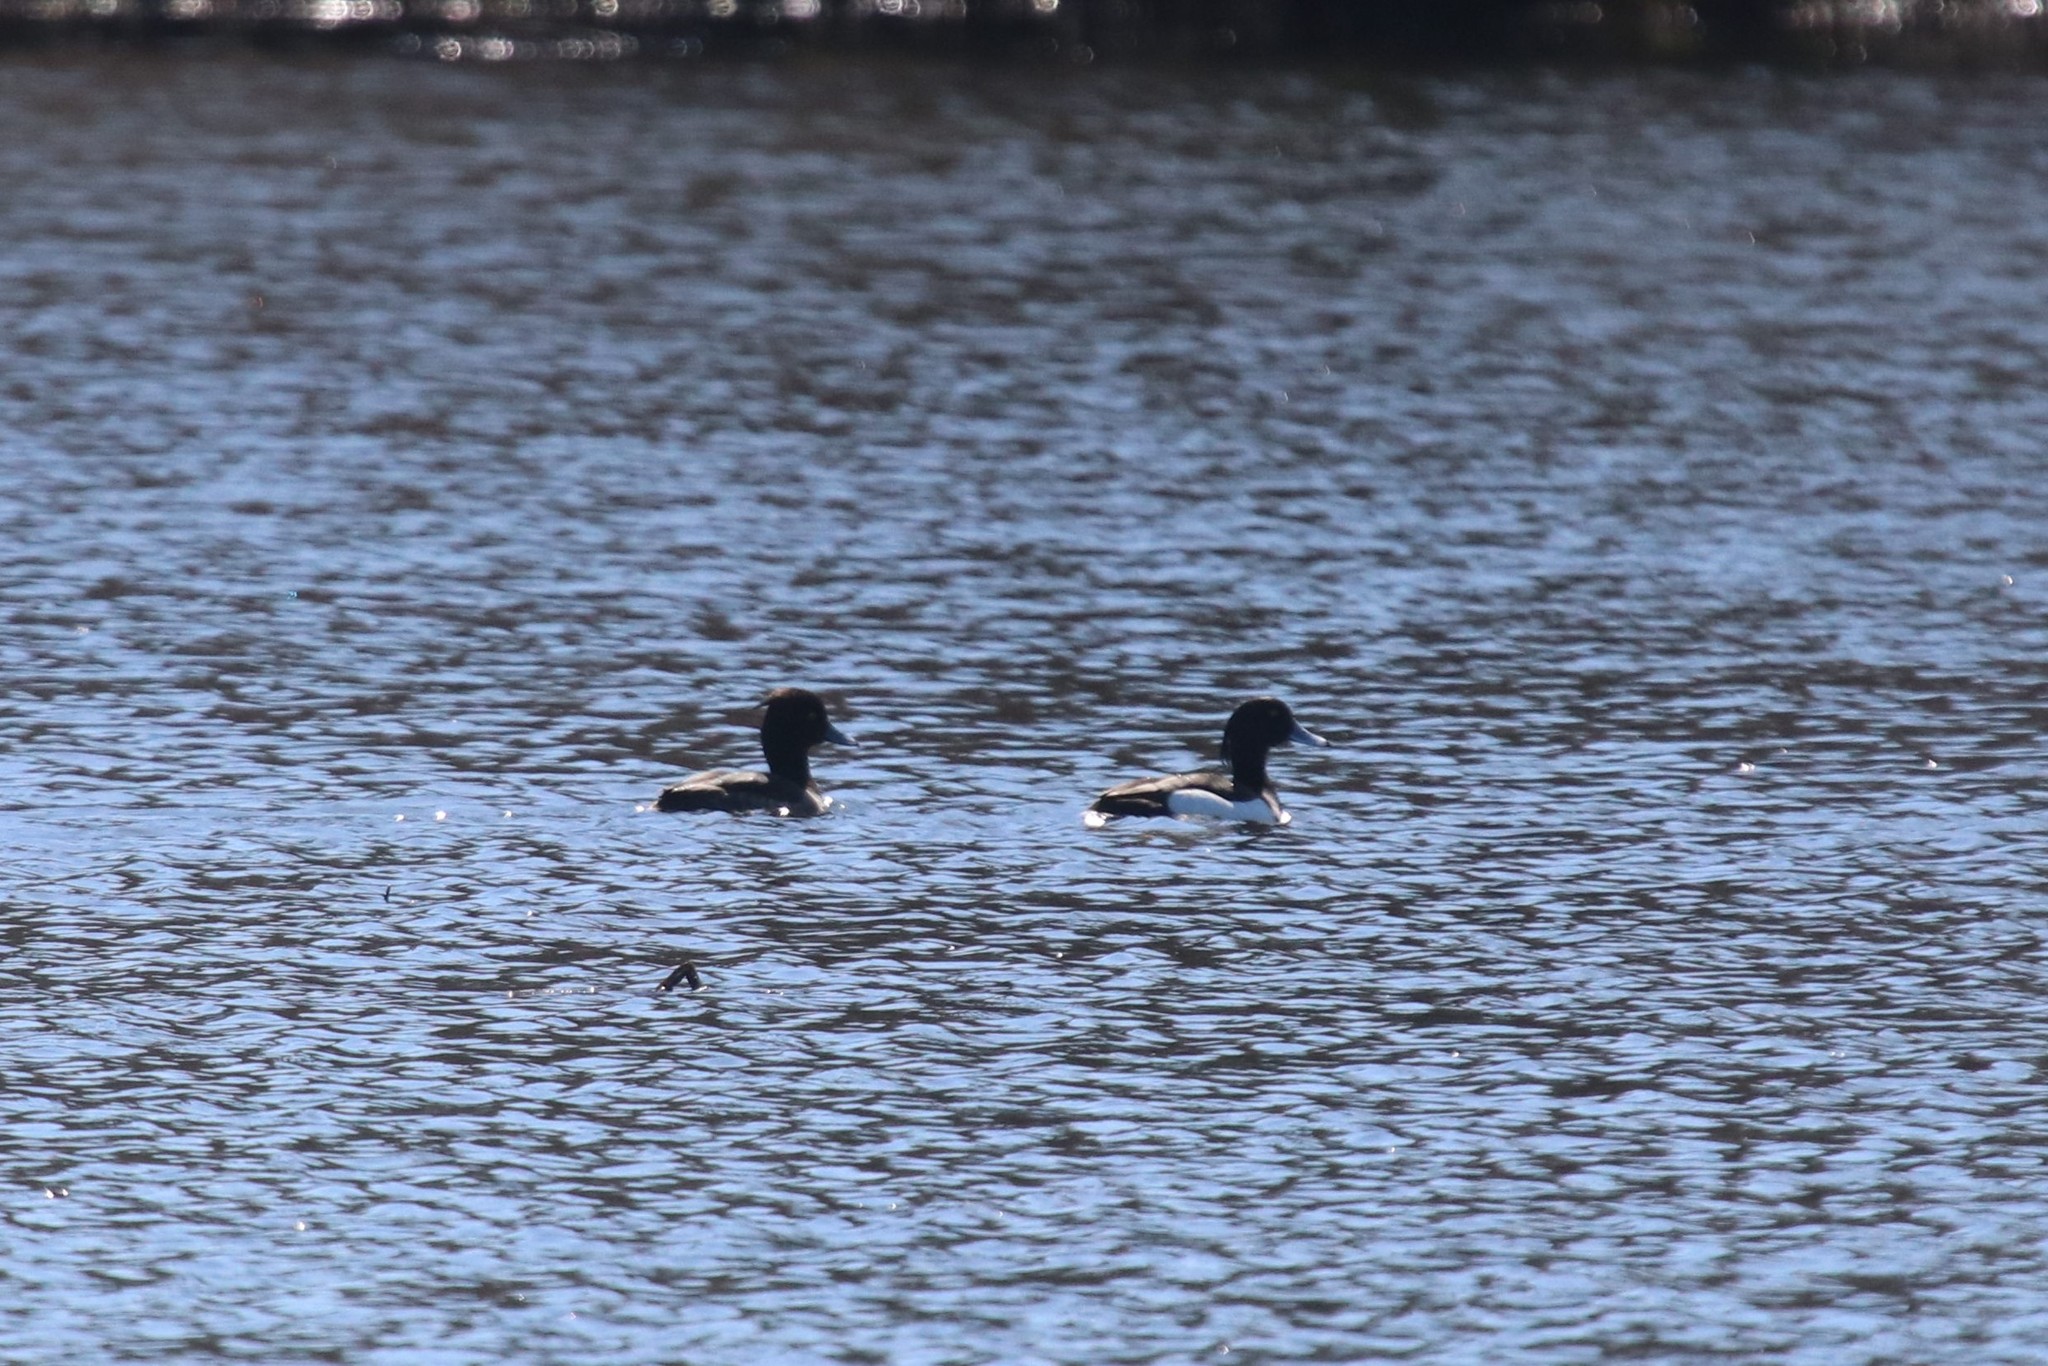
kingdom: Animalia
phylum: Chordata
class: Aves
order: Anseriformes
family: Anatidae
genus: Aythya
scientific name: Aythya fuligula
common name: Tufted duck
